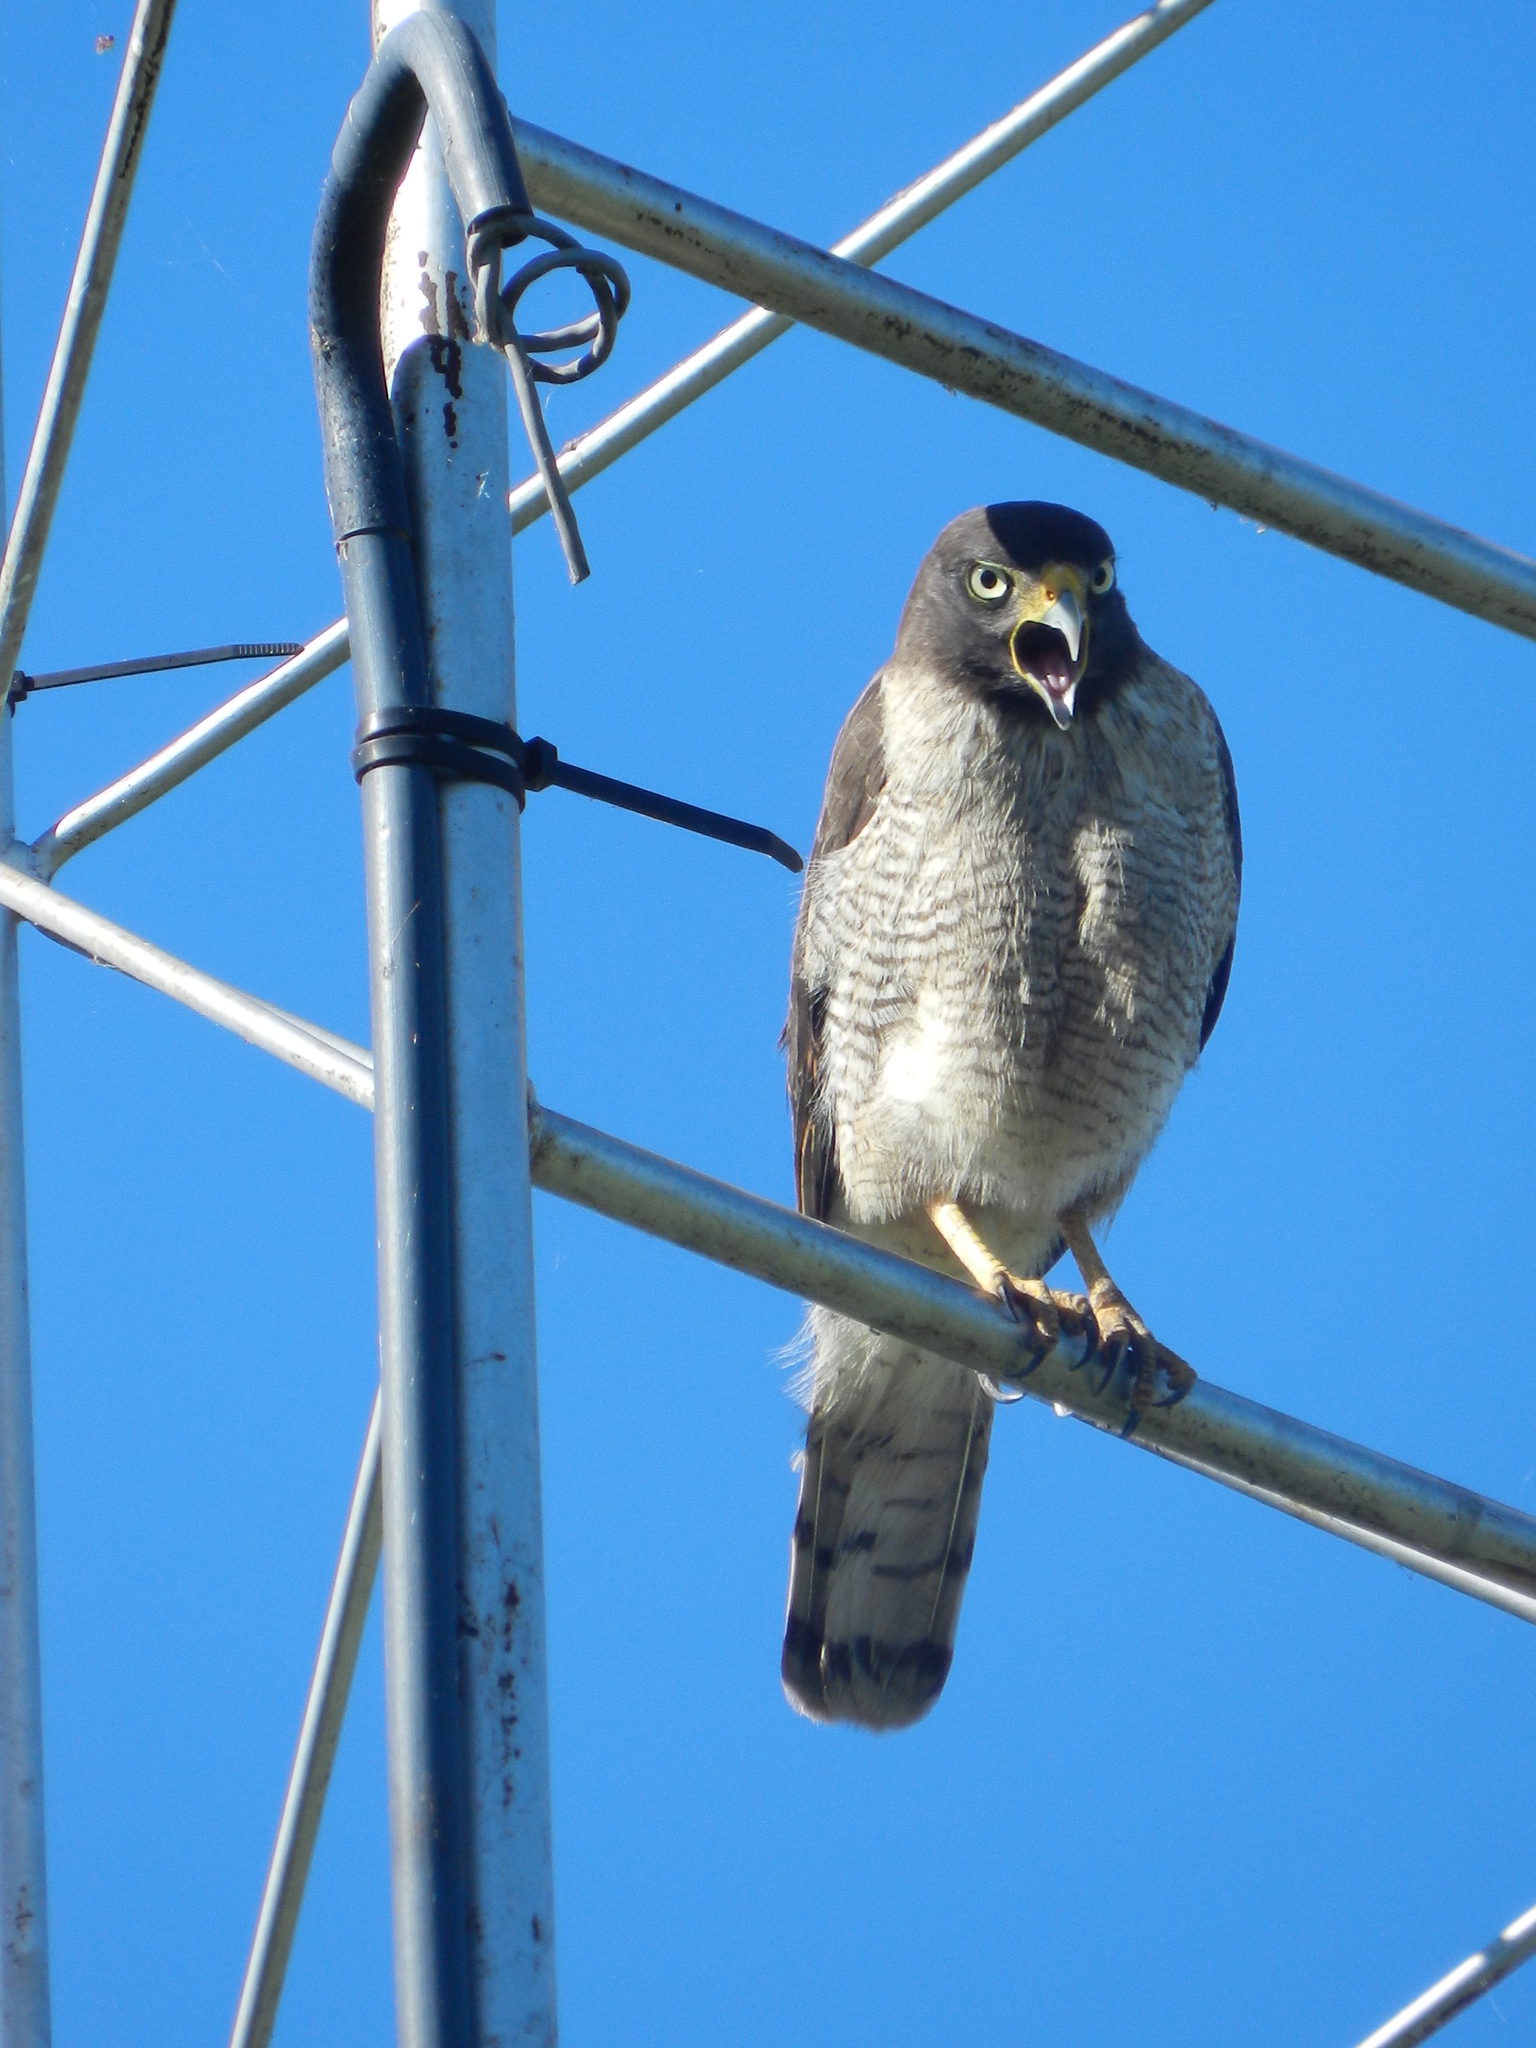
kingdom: Animalia
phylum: Chordata
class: Aves
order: Accipitriformes
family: Accipitridae
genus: Rupornis
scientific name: Rupornis magnirostris
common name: Roadside hawk
